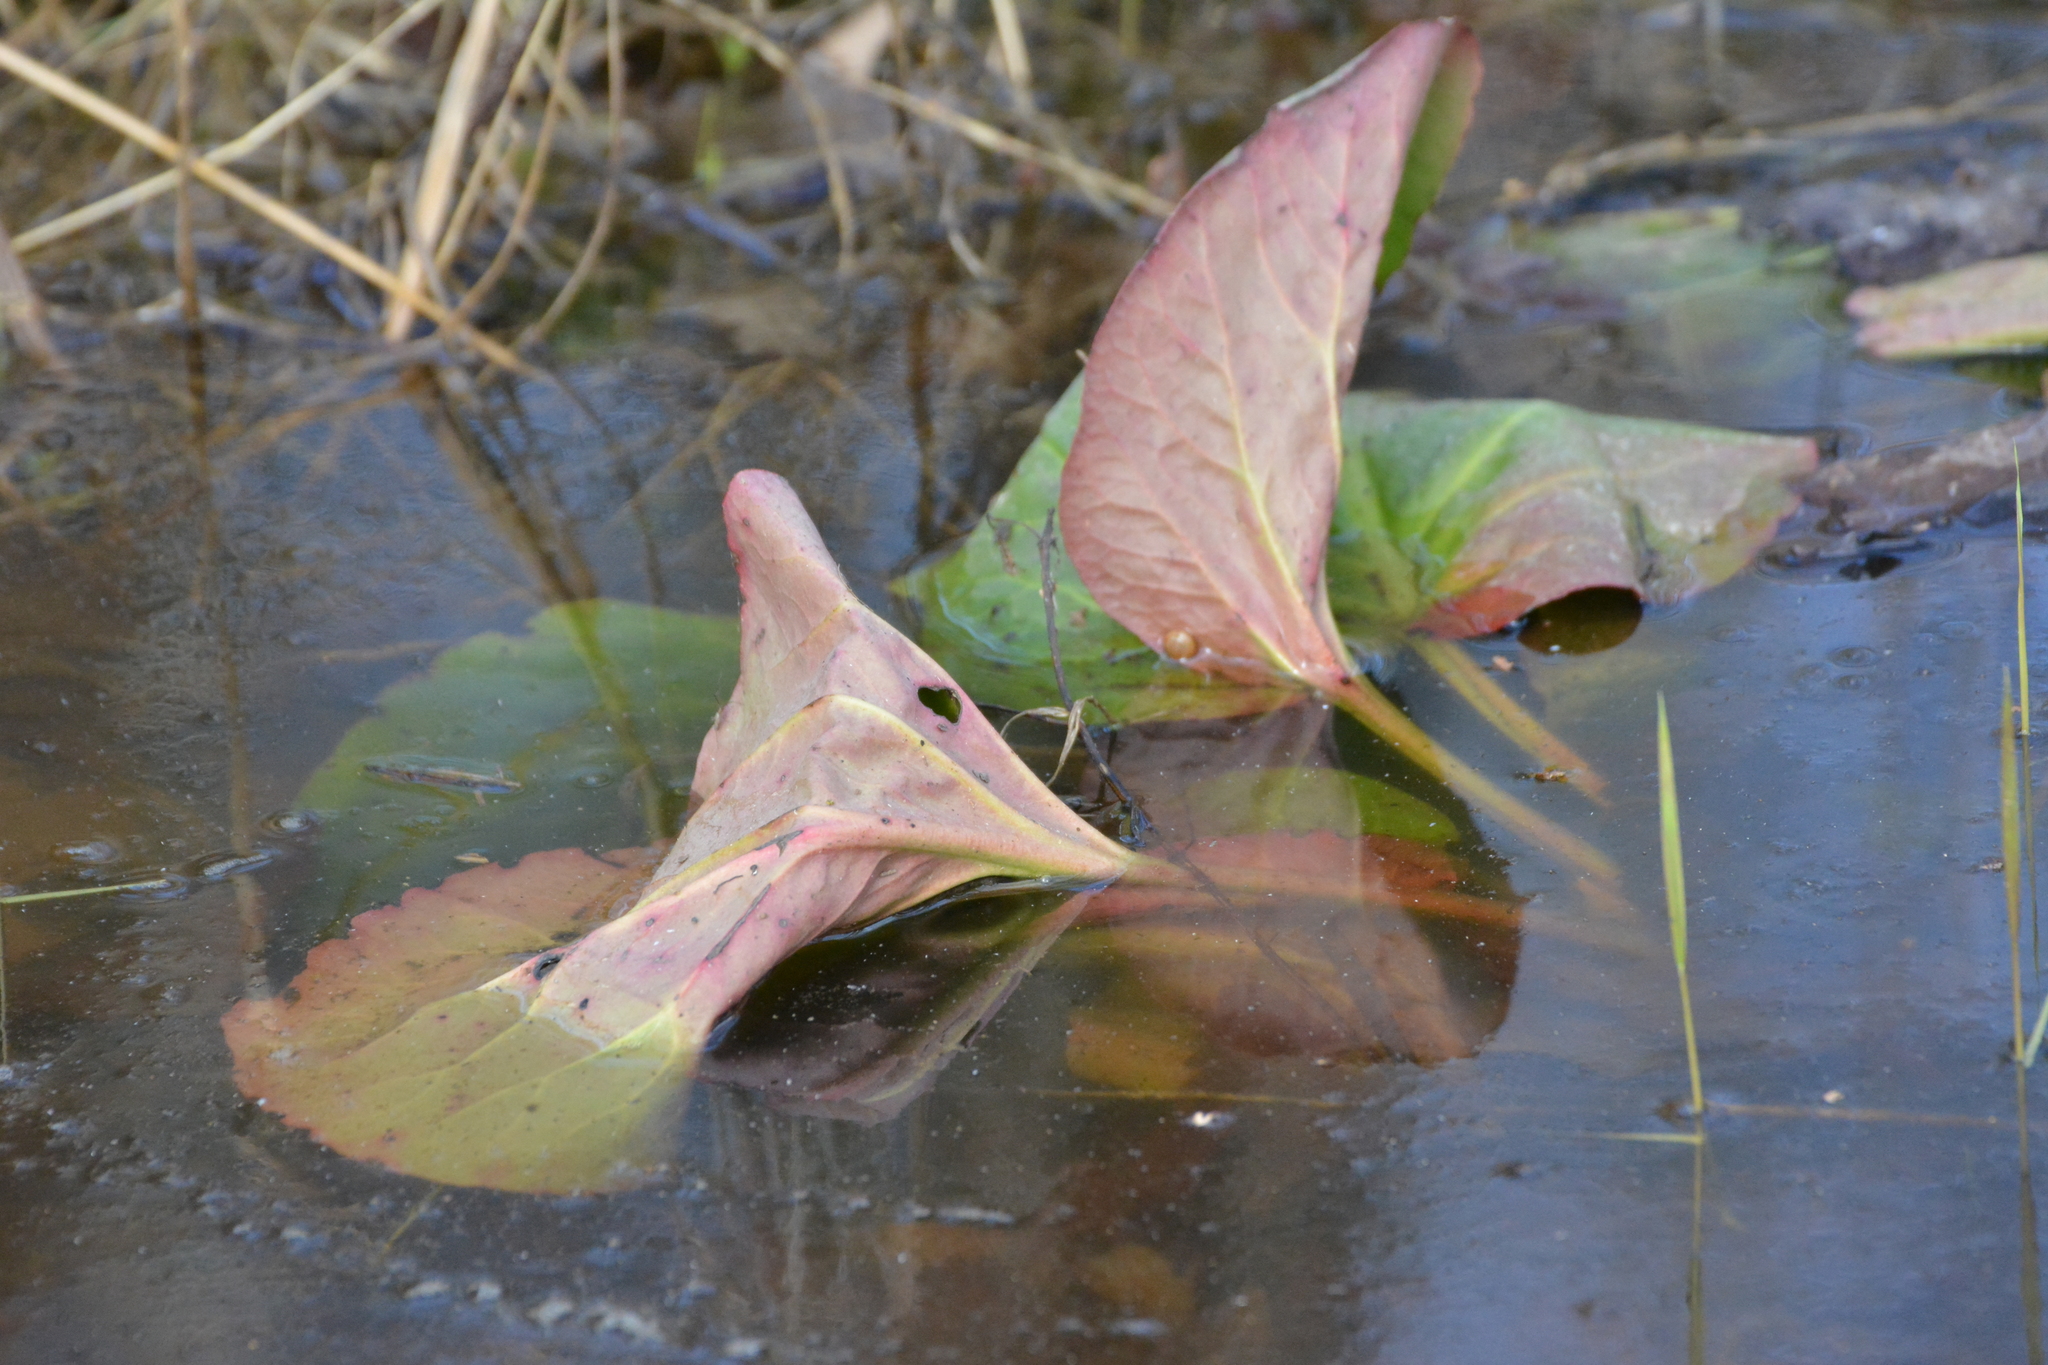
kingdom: Plantae
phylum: Tracheophyta
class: Magnoliopsida
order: Saxifragales
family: Saxifragaceae
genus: Bergenia
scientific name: Bergenia crassifolia
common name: Elephant-ears
